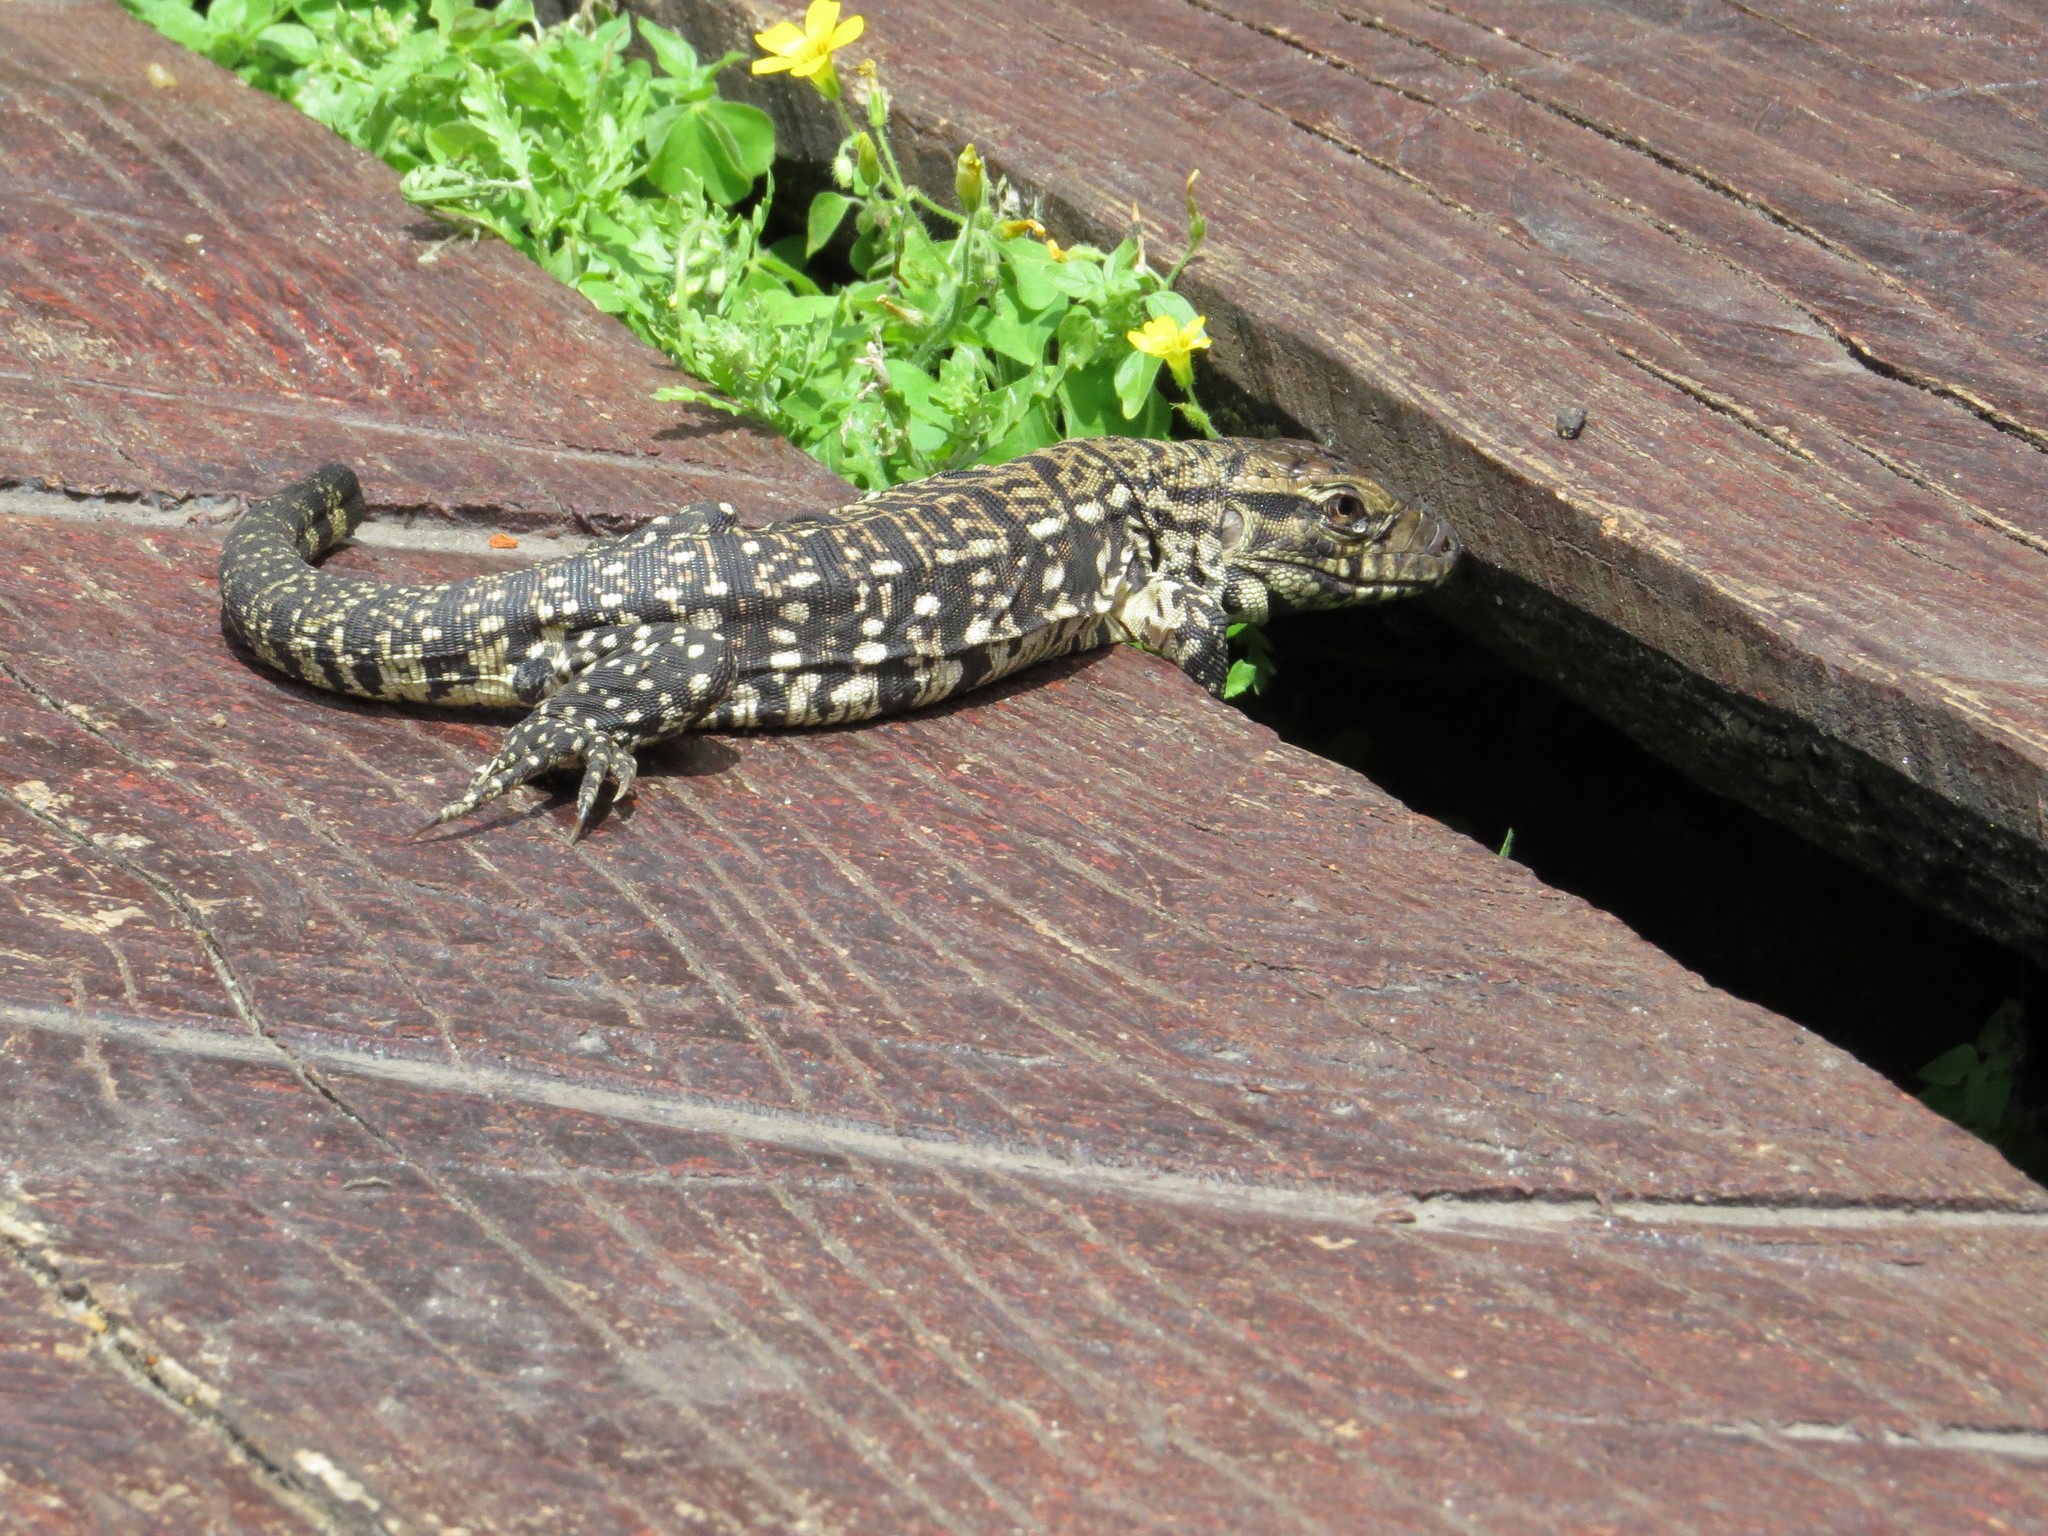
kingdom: Animalia
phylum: Chordata
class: Squamata
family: Teiidae
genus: Salvator
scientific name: Salvator merianae
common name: Argentine black and white tegu
